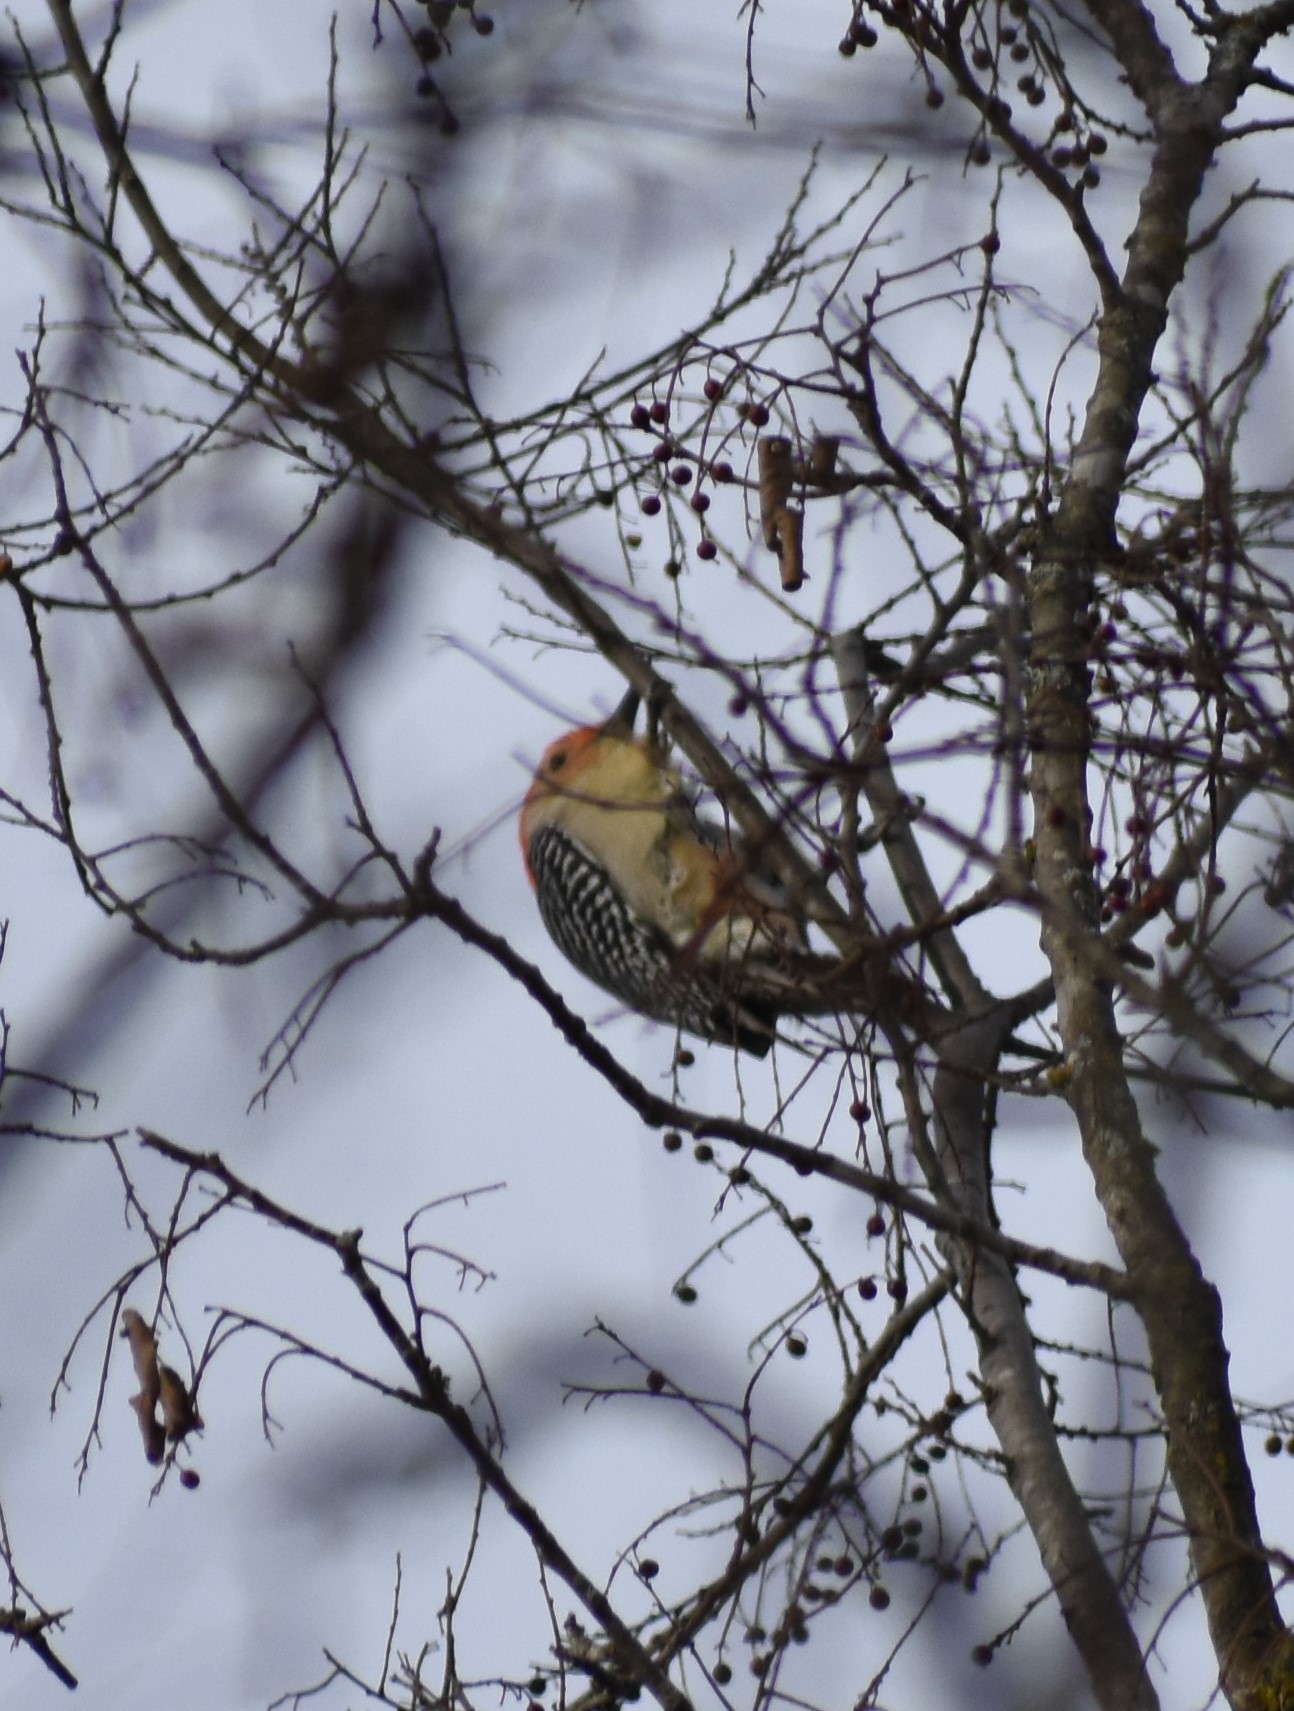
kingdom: Animalia
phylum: Chordata
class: Aves
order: Piciformes
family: Picidae
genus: Melanerpes
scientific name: Melanerpes carolinus
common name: Red-bellied woodpecker
